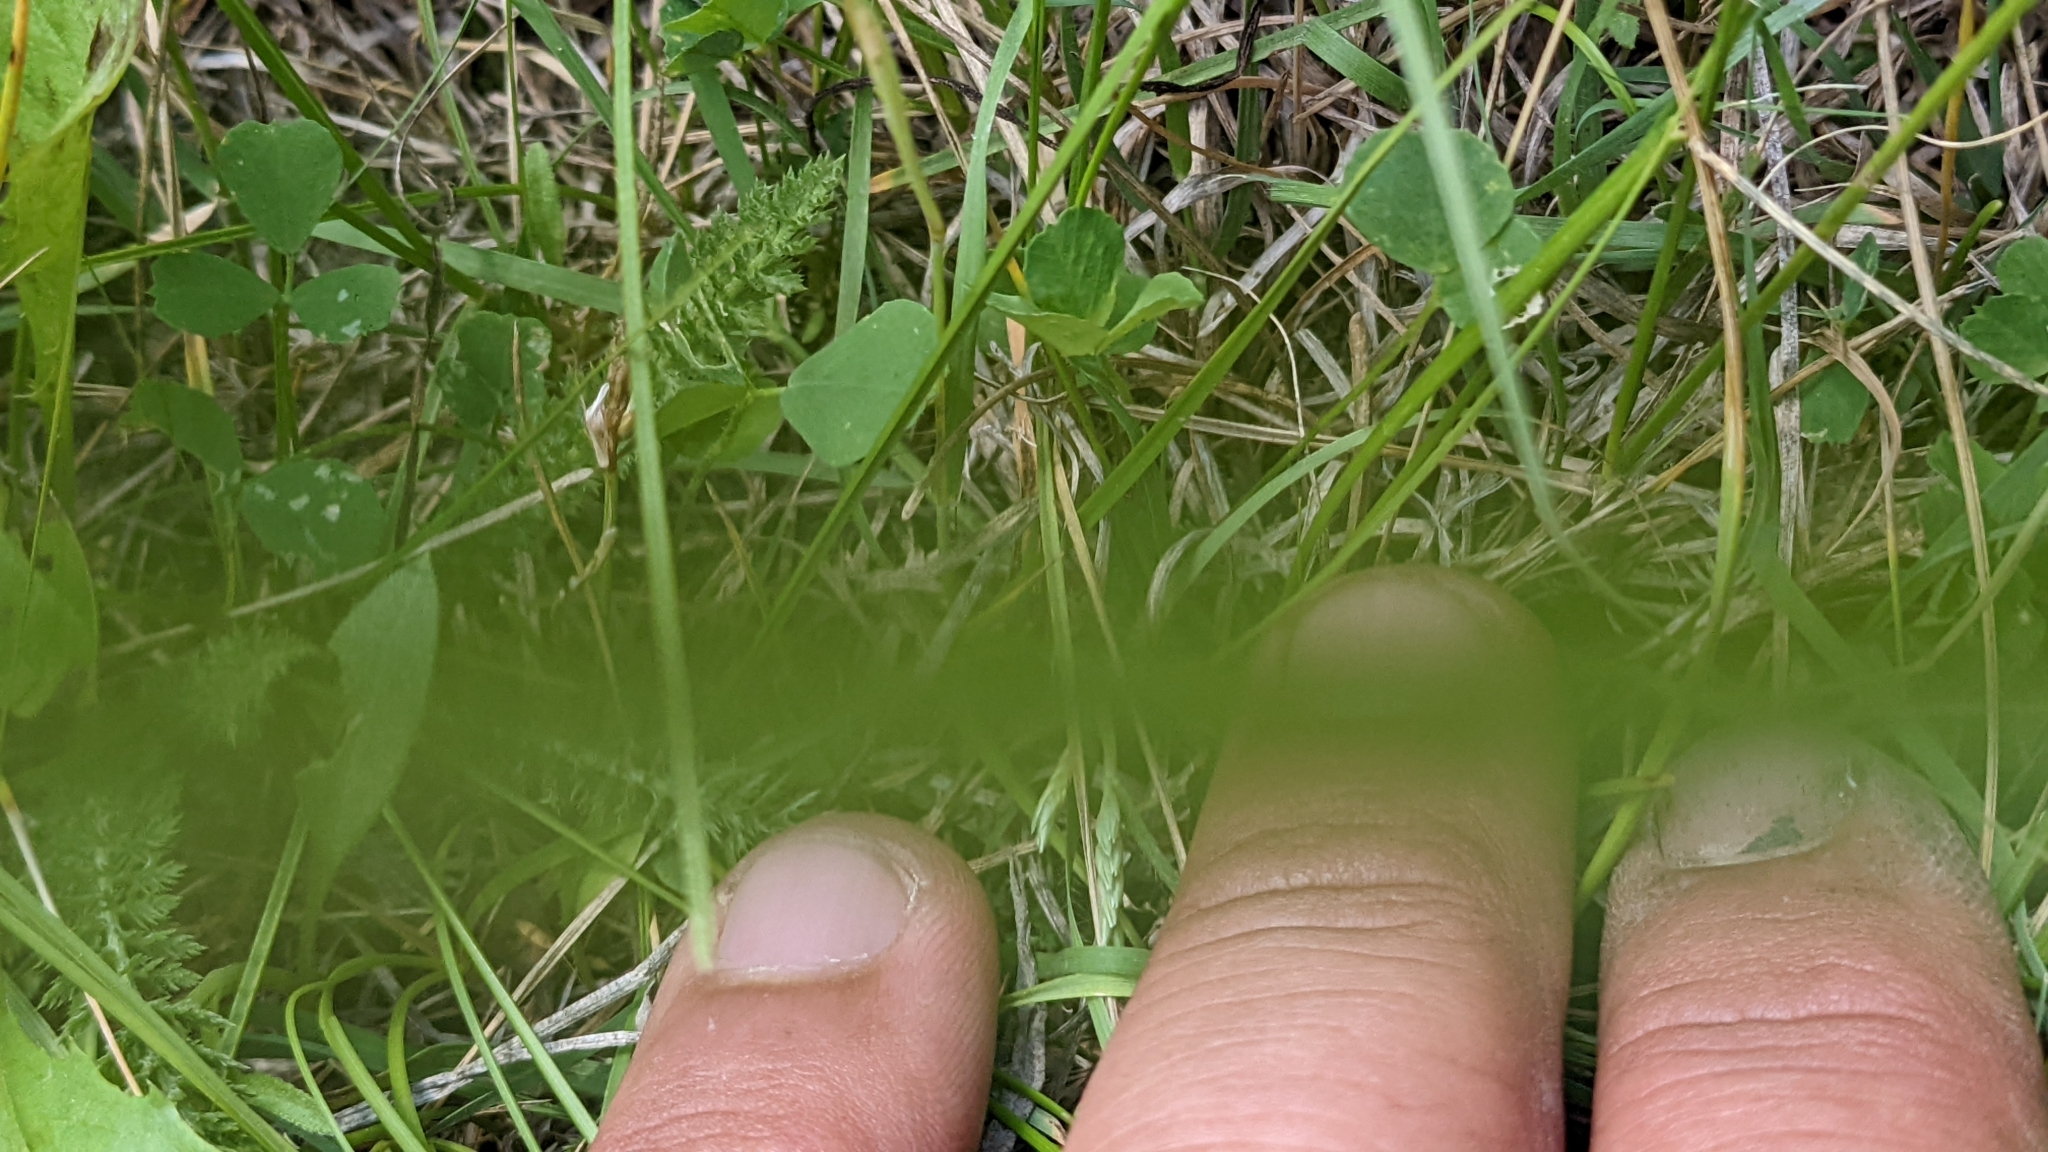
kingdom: Plantae
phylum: Tracheophyta
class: Liliopsida
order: Poales
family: Poaceae
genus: Bouteloua
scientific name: Bouteloua dactyloides
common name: Buffalo grass
